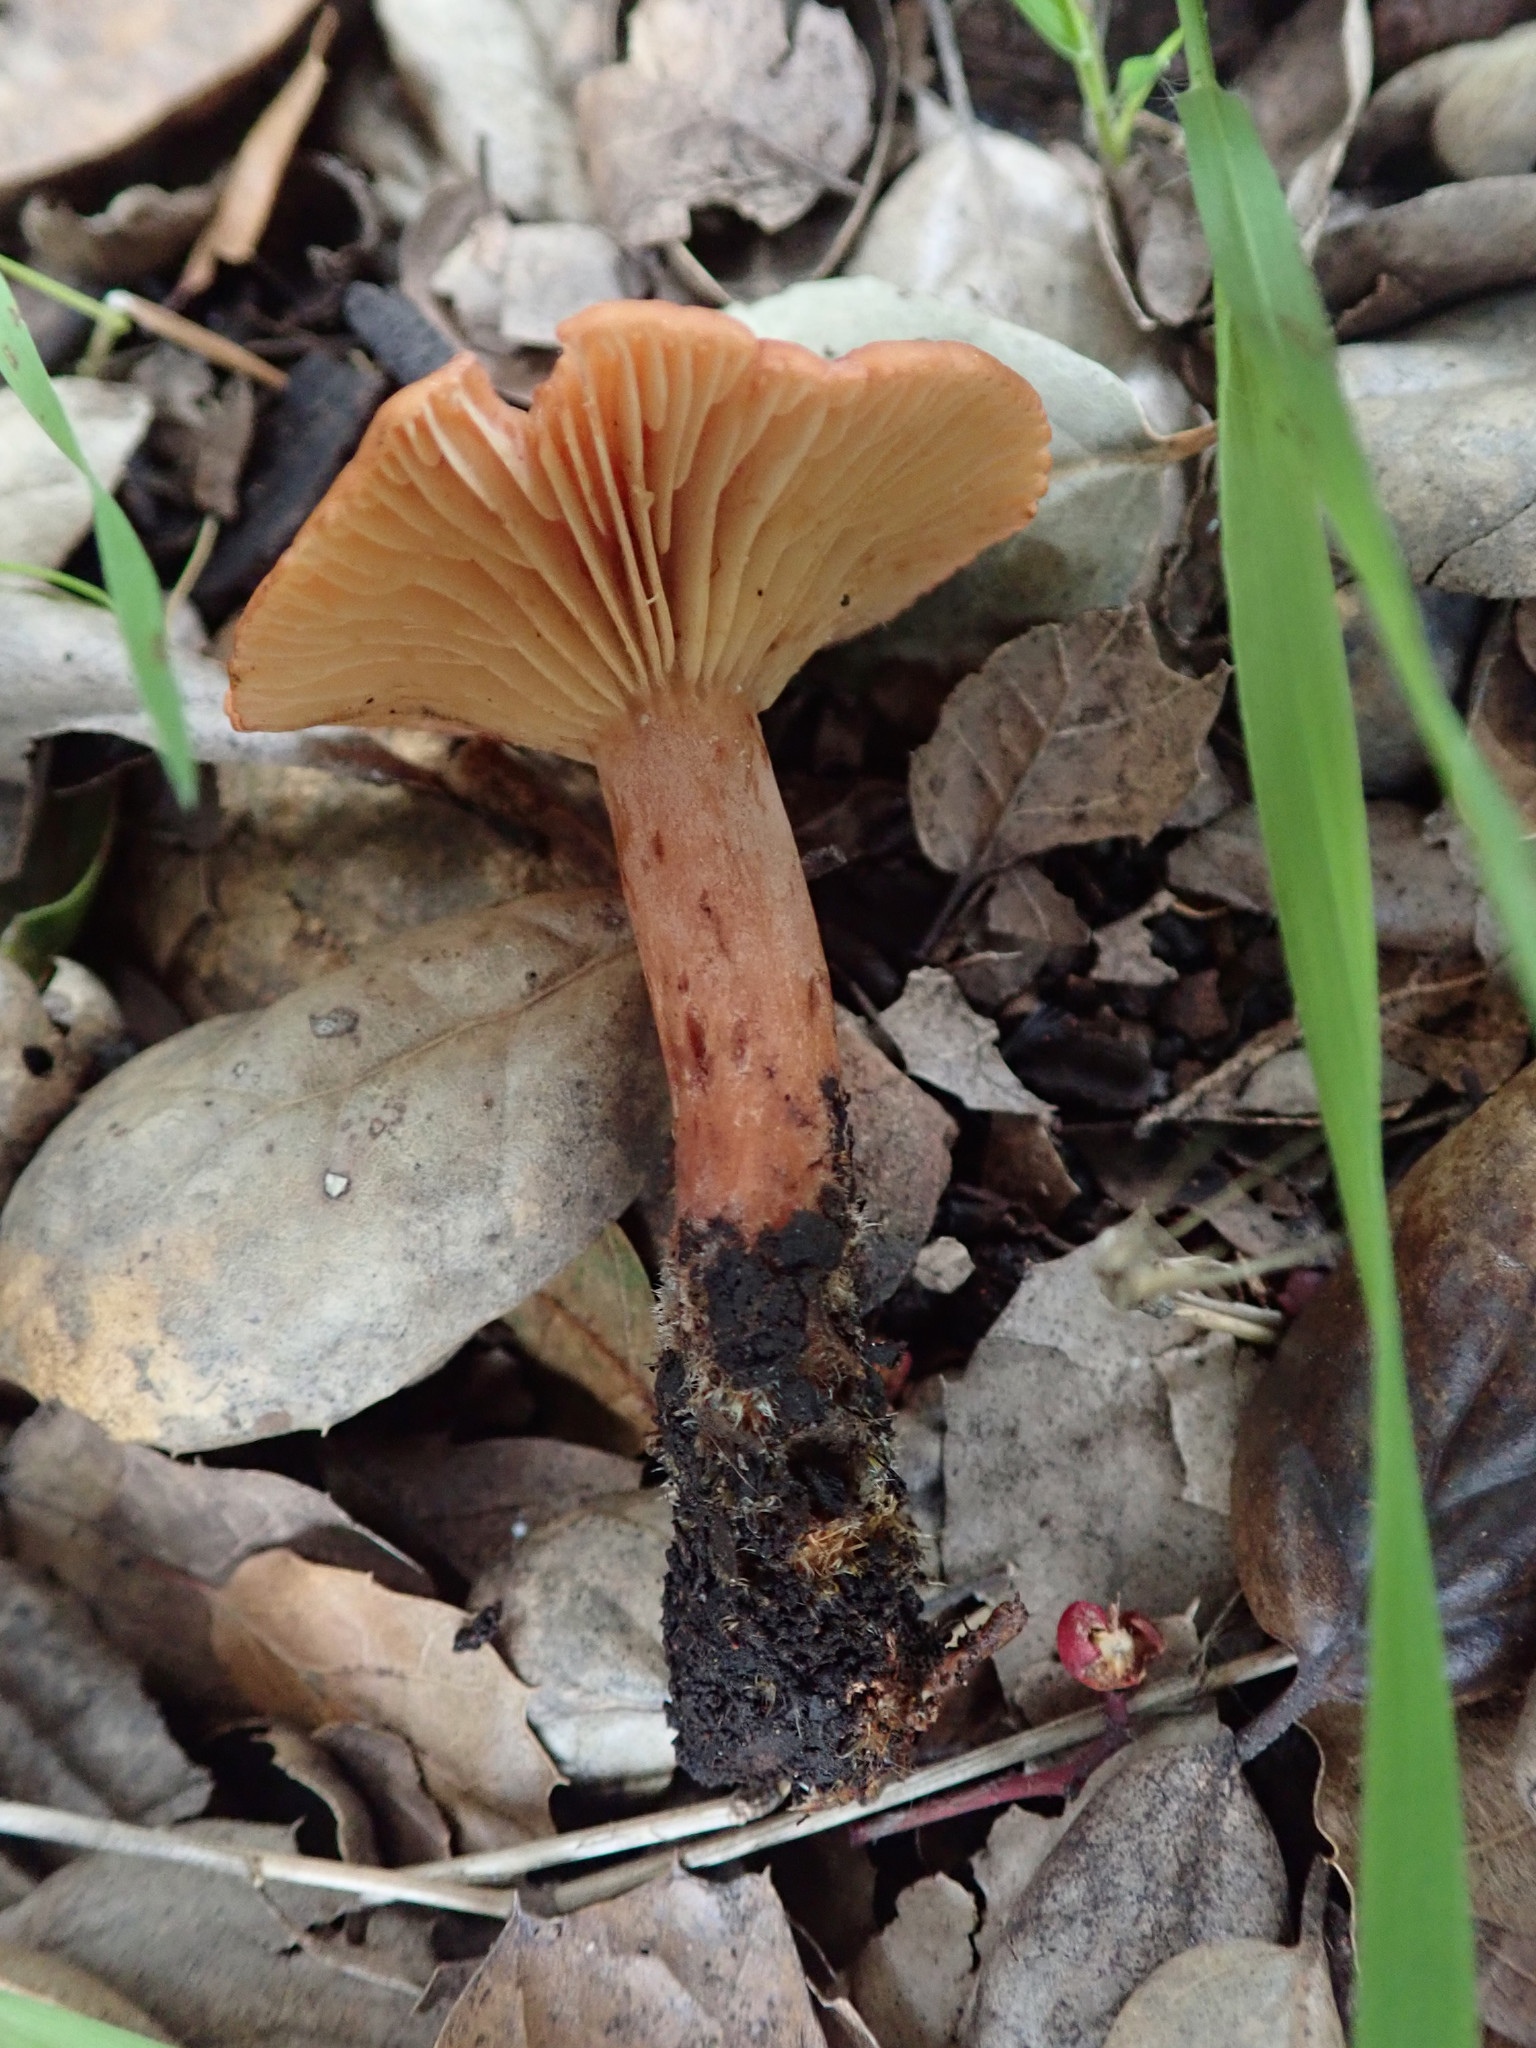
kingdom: Fungi
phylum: Basidiomycota
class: Agaricomycetes
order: Russulales
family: Russulaceae
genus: Lactarius
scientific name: Lactarius rufulus
